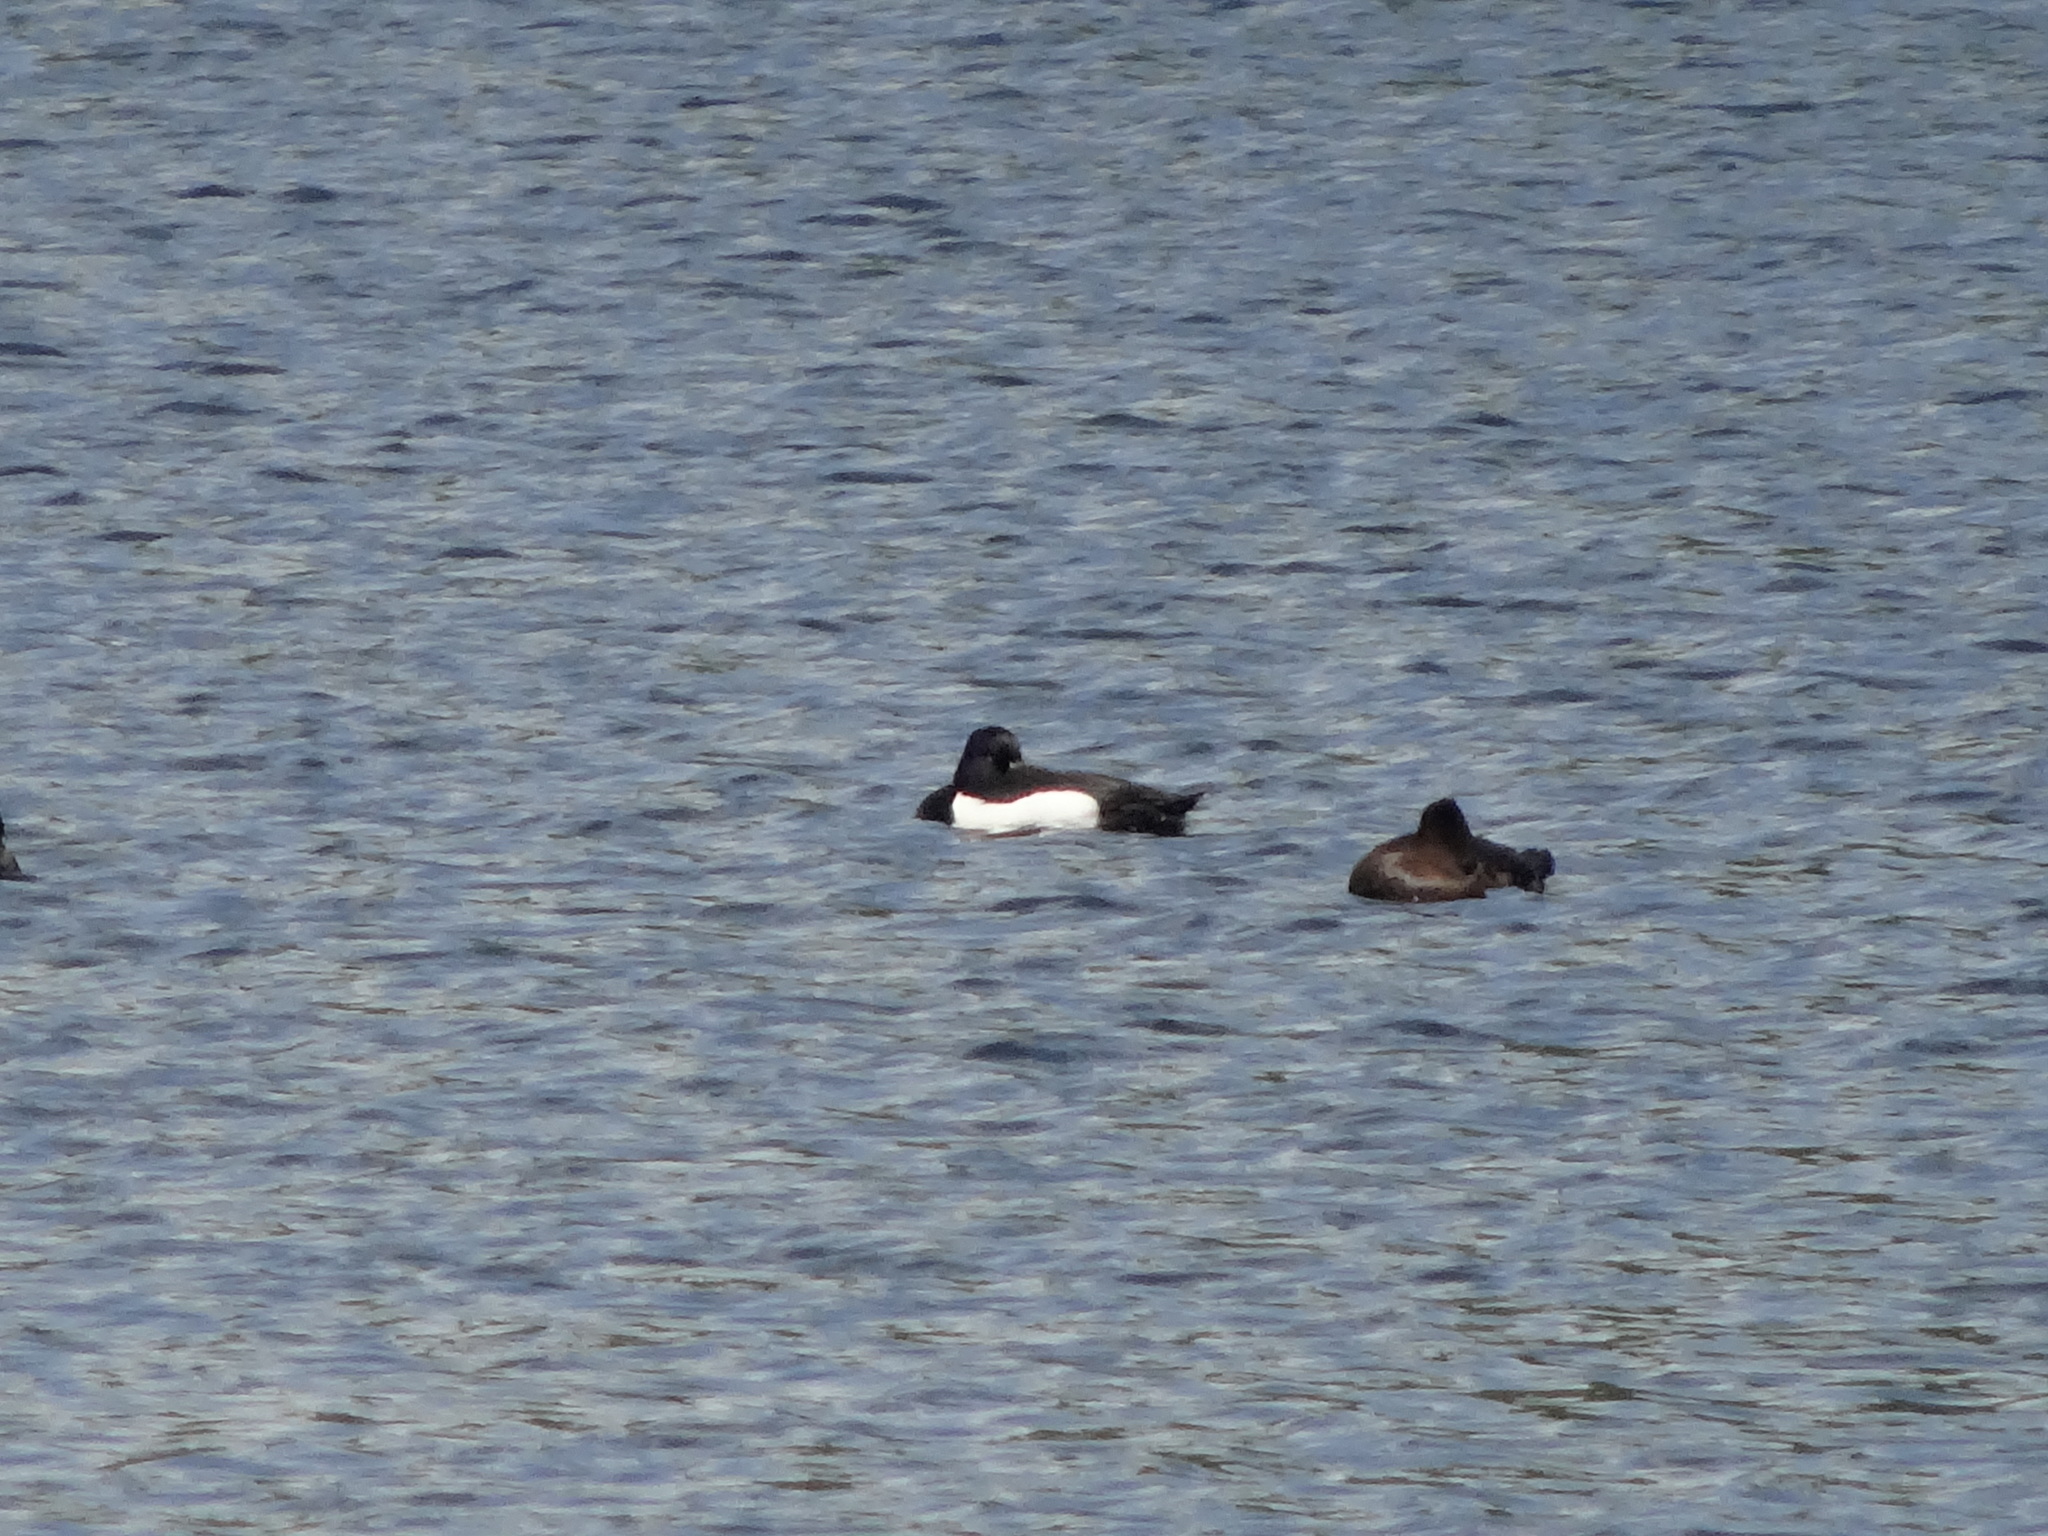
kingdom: Animalia
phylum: Chordata
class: Aves
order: Anseriformes
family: Anatidae
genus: Aythya
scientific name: Aythya fuligula
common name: Tufted duck
